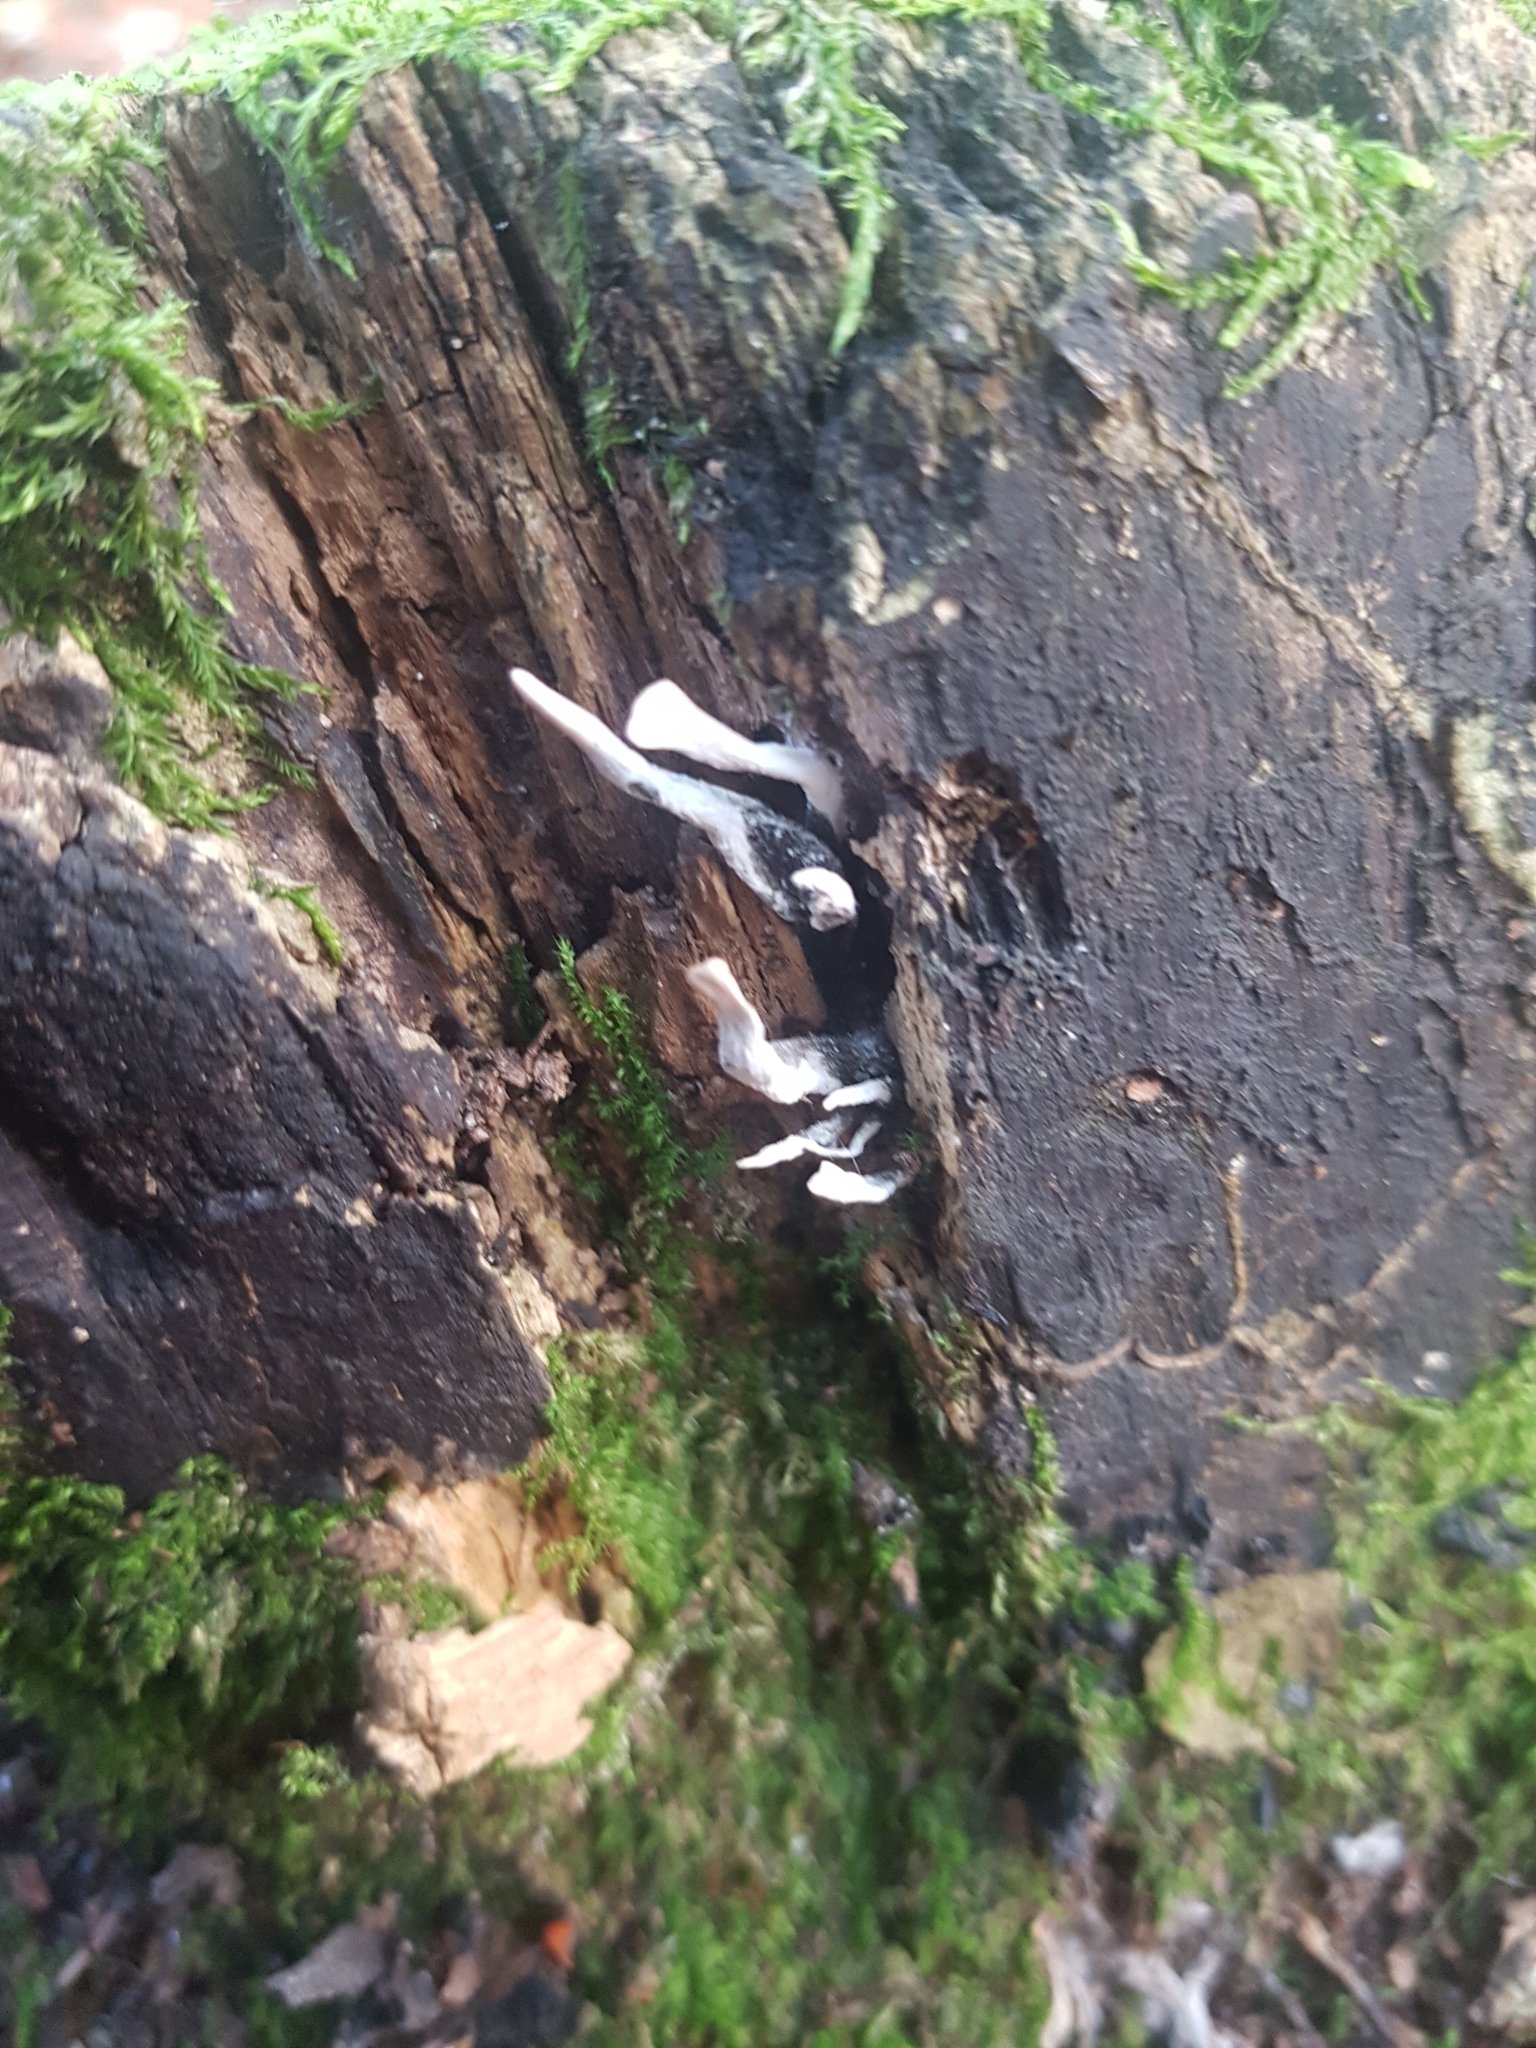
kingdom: Fungi
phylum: Ascomycota
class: Sordariomycetes
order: Xylariales
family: Xylariaceae
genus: Xylaria
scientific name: Xylaria hypoxylon
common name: Candle-snuff fungus
